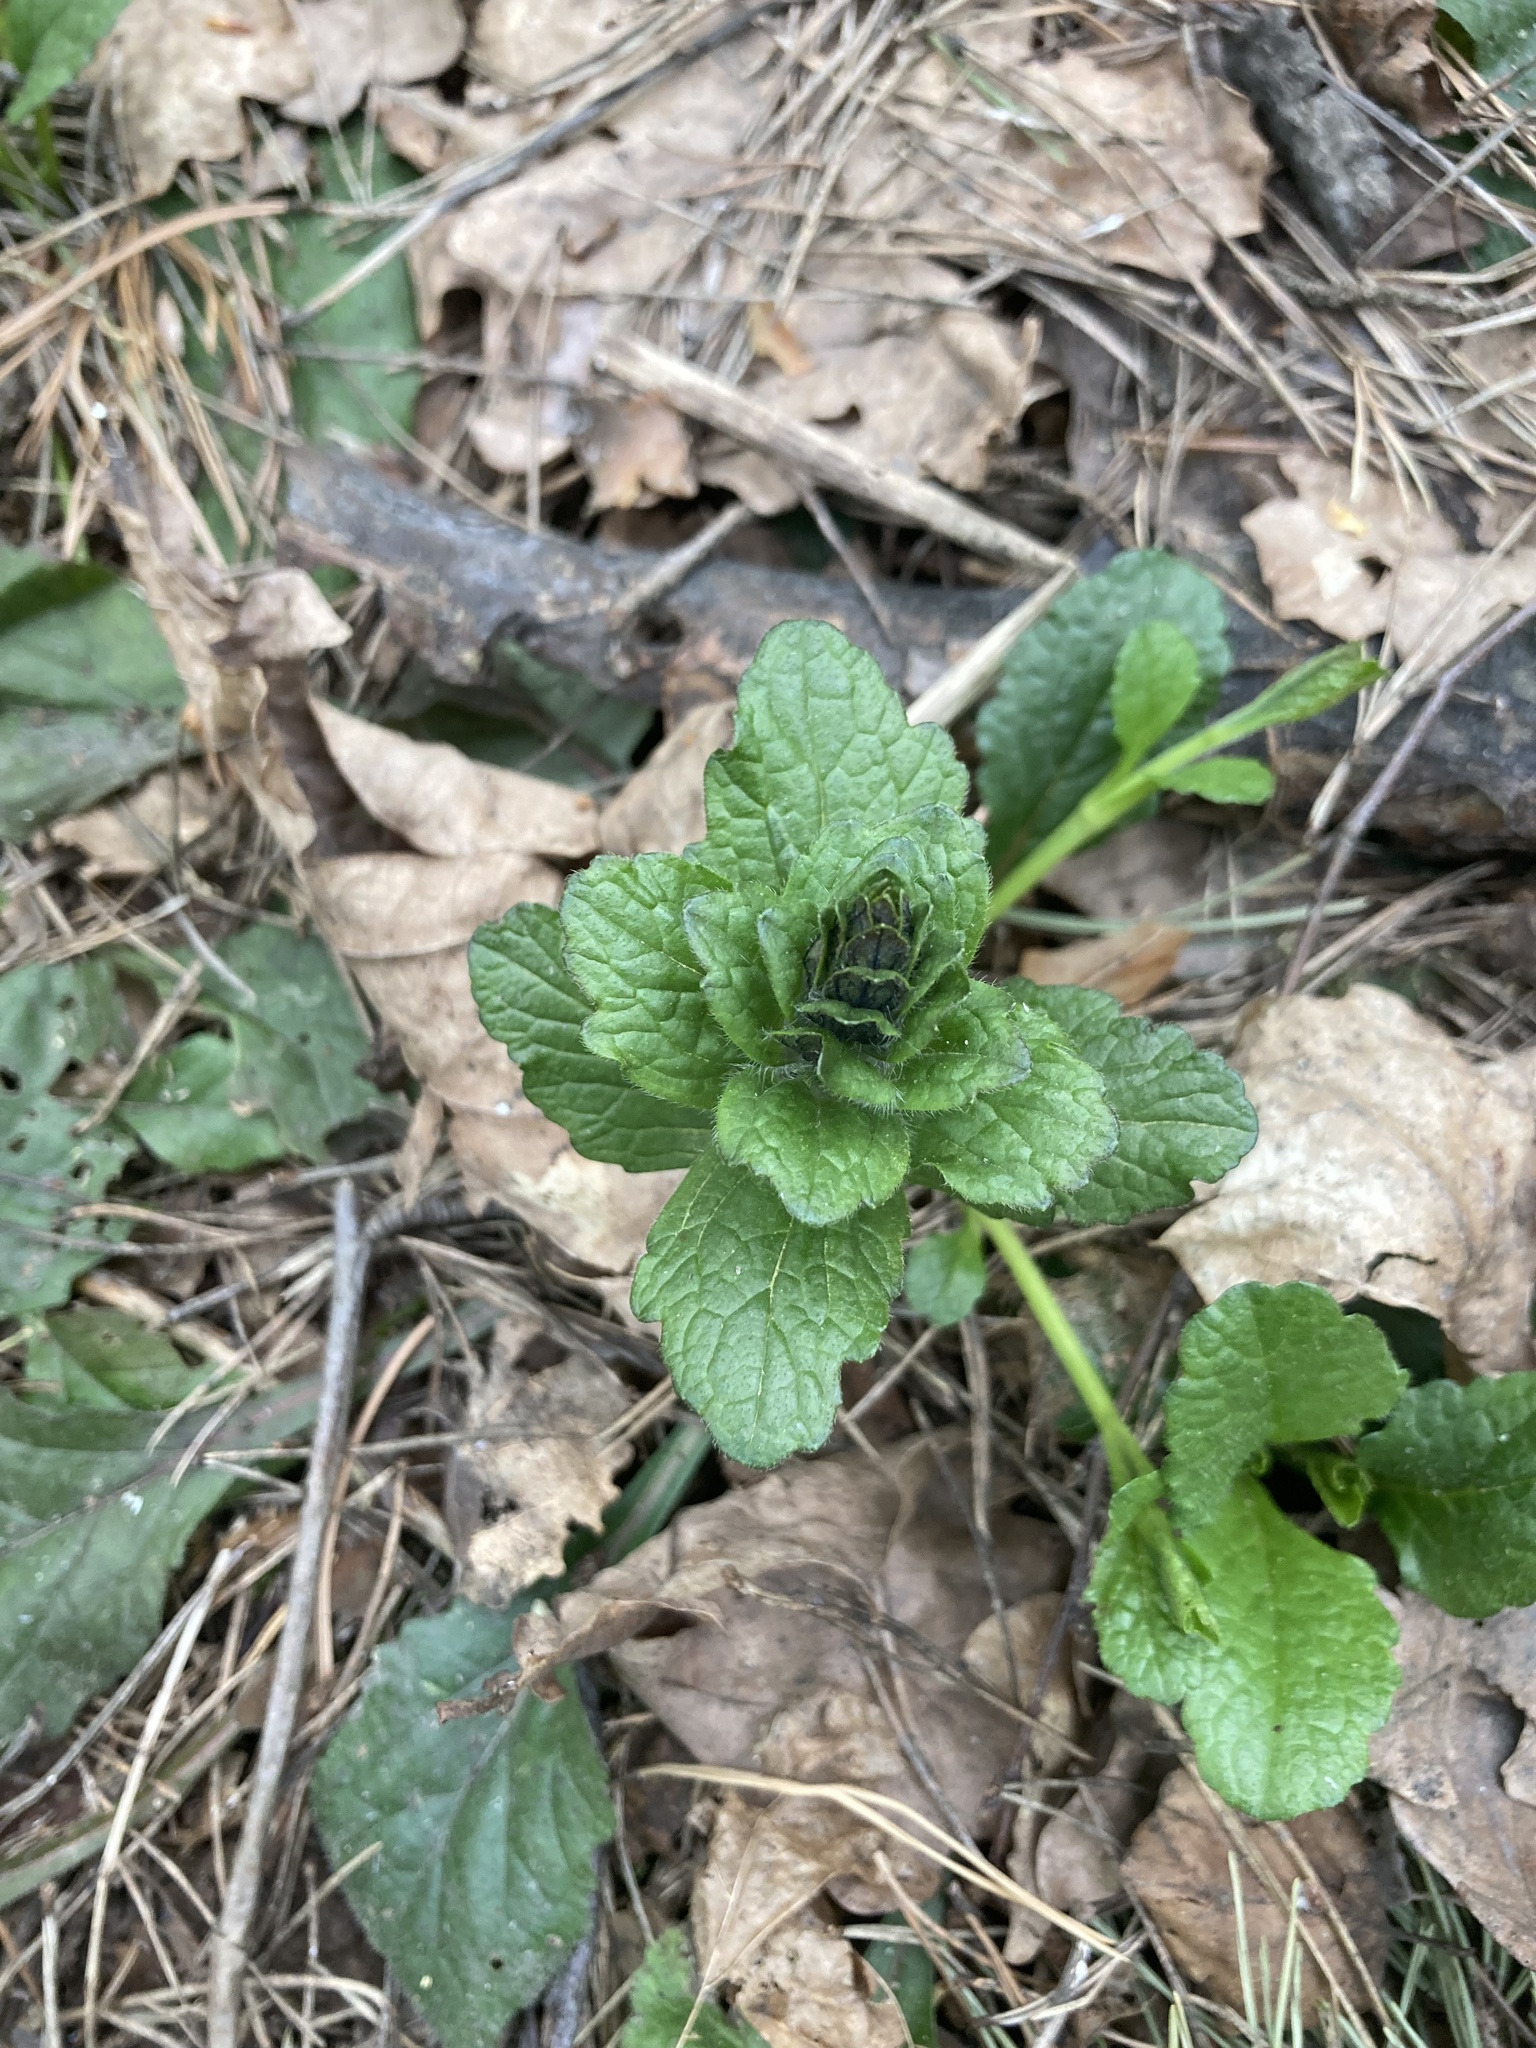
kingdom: Plantae
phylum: Tracheophyta
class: Magnoliopsida
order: Lamiales
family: Lamiaceae
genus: Ajuga
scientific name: Ajuga reptans
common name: Bugle
